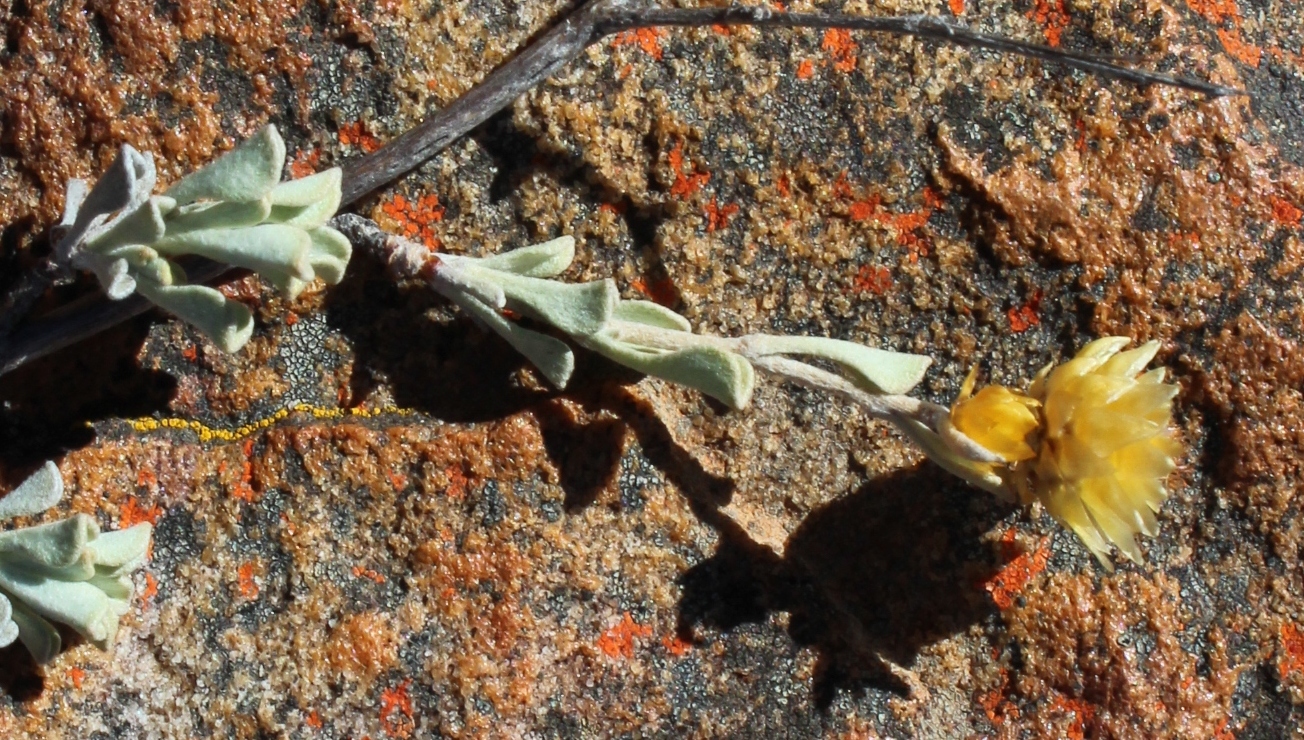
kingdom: Plantae
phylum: Tracheophyta
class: Magnoliopsida
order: Asterales
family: Asteraceae
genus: Helichrysum
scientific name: Helichrysum acrophilum
